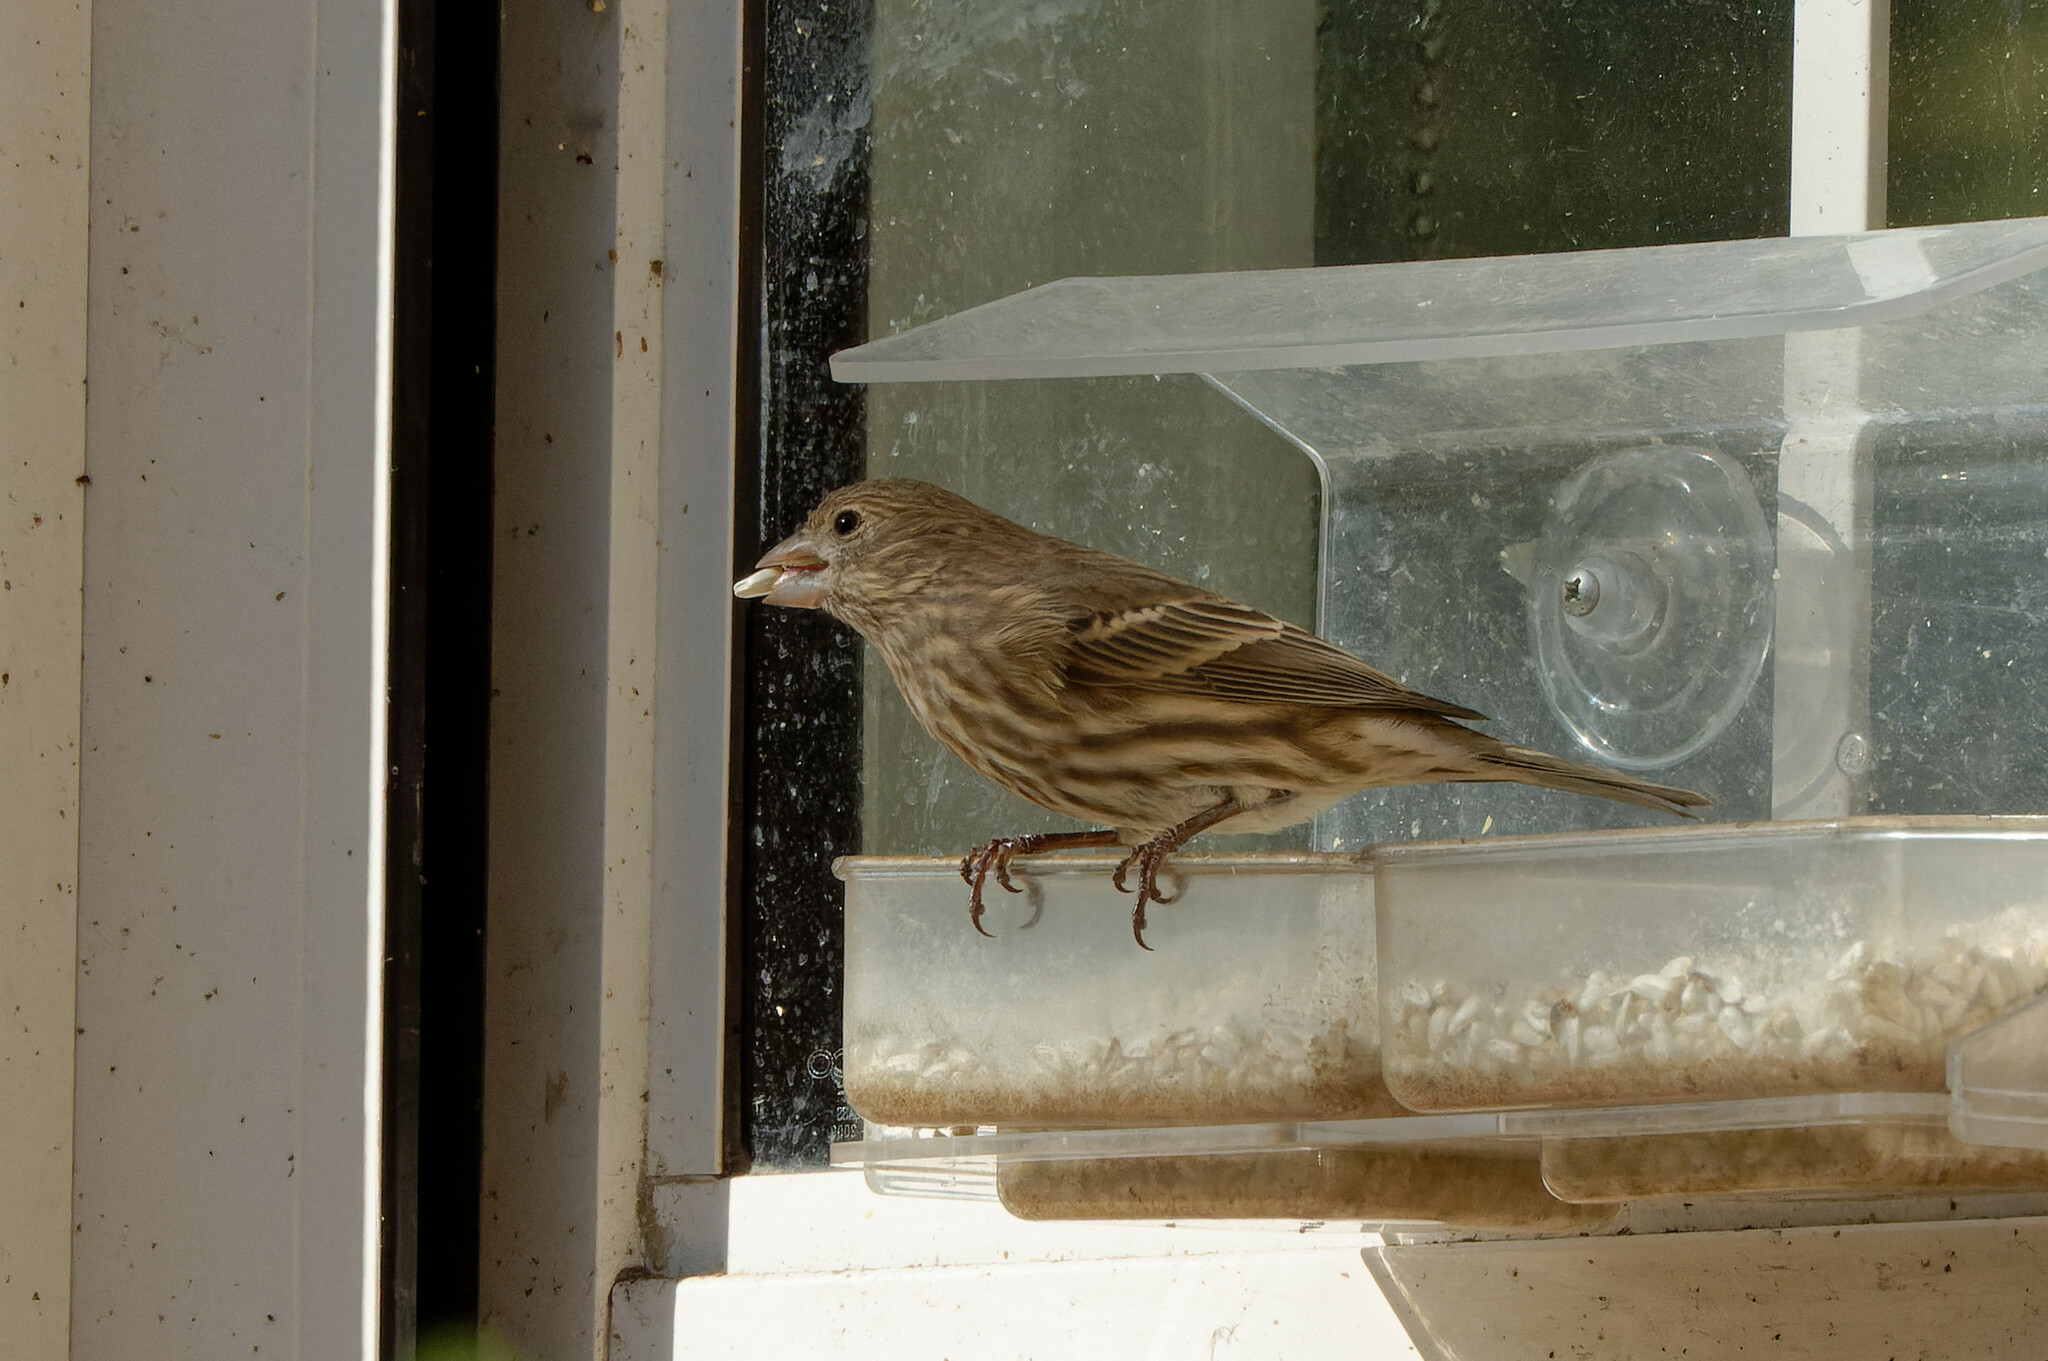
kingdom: Animalia
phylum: Chordata
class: Aves
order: Passeriformes
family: Fringillidae
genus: Haemorhous
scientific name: Haemorhous mexicanus
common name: House finch
